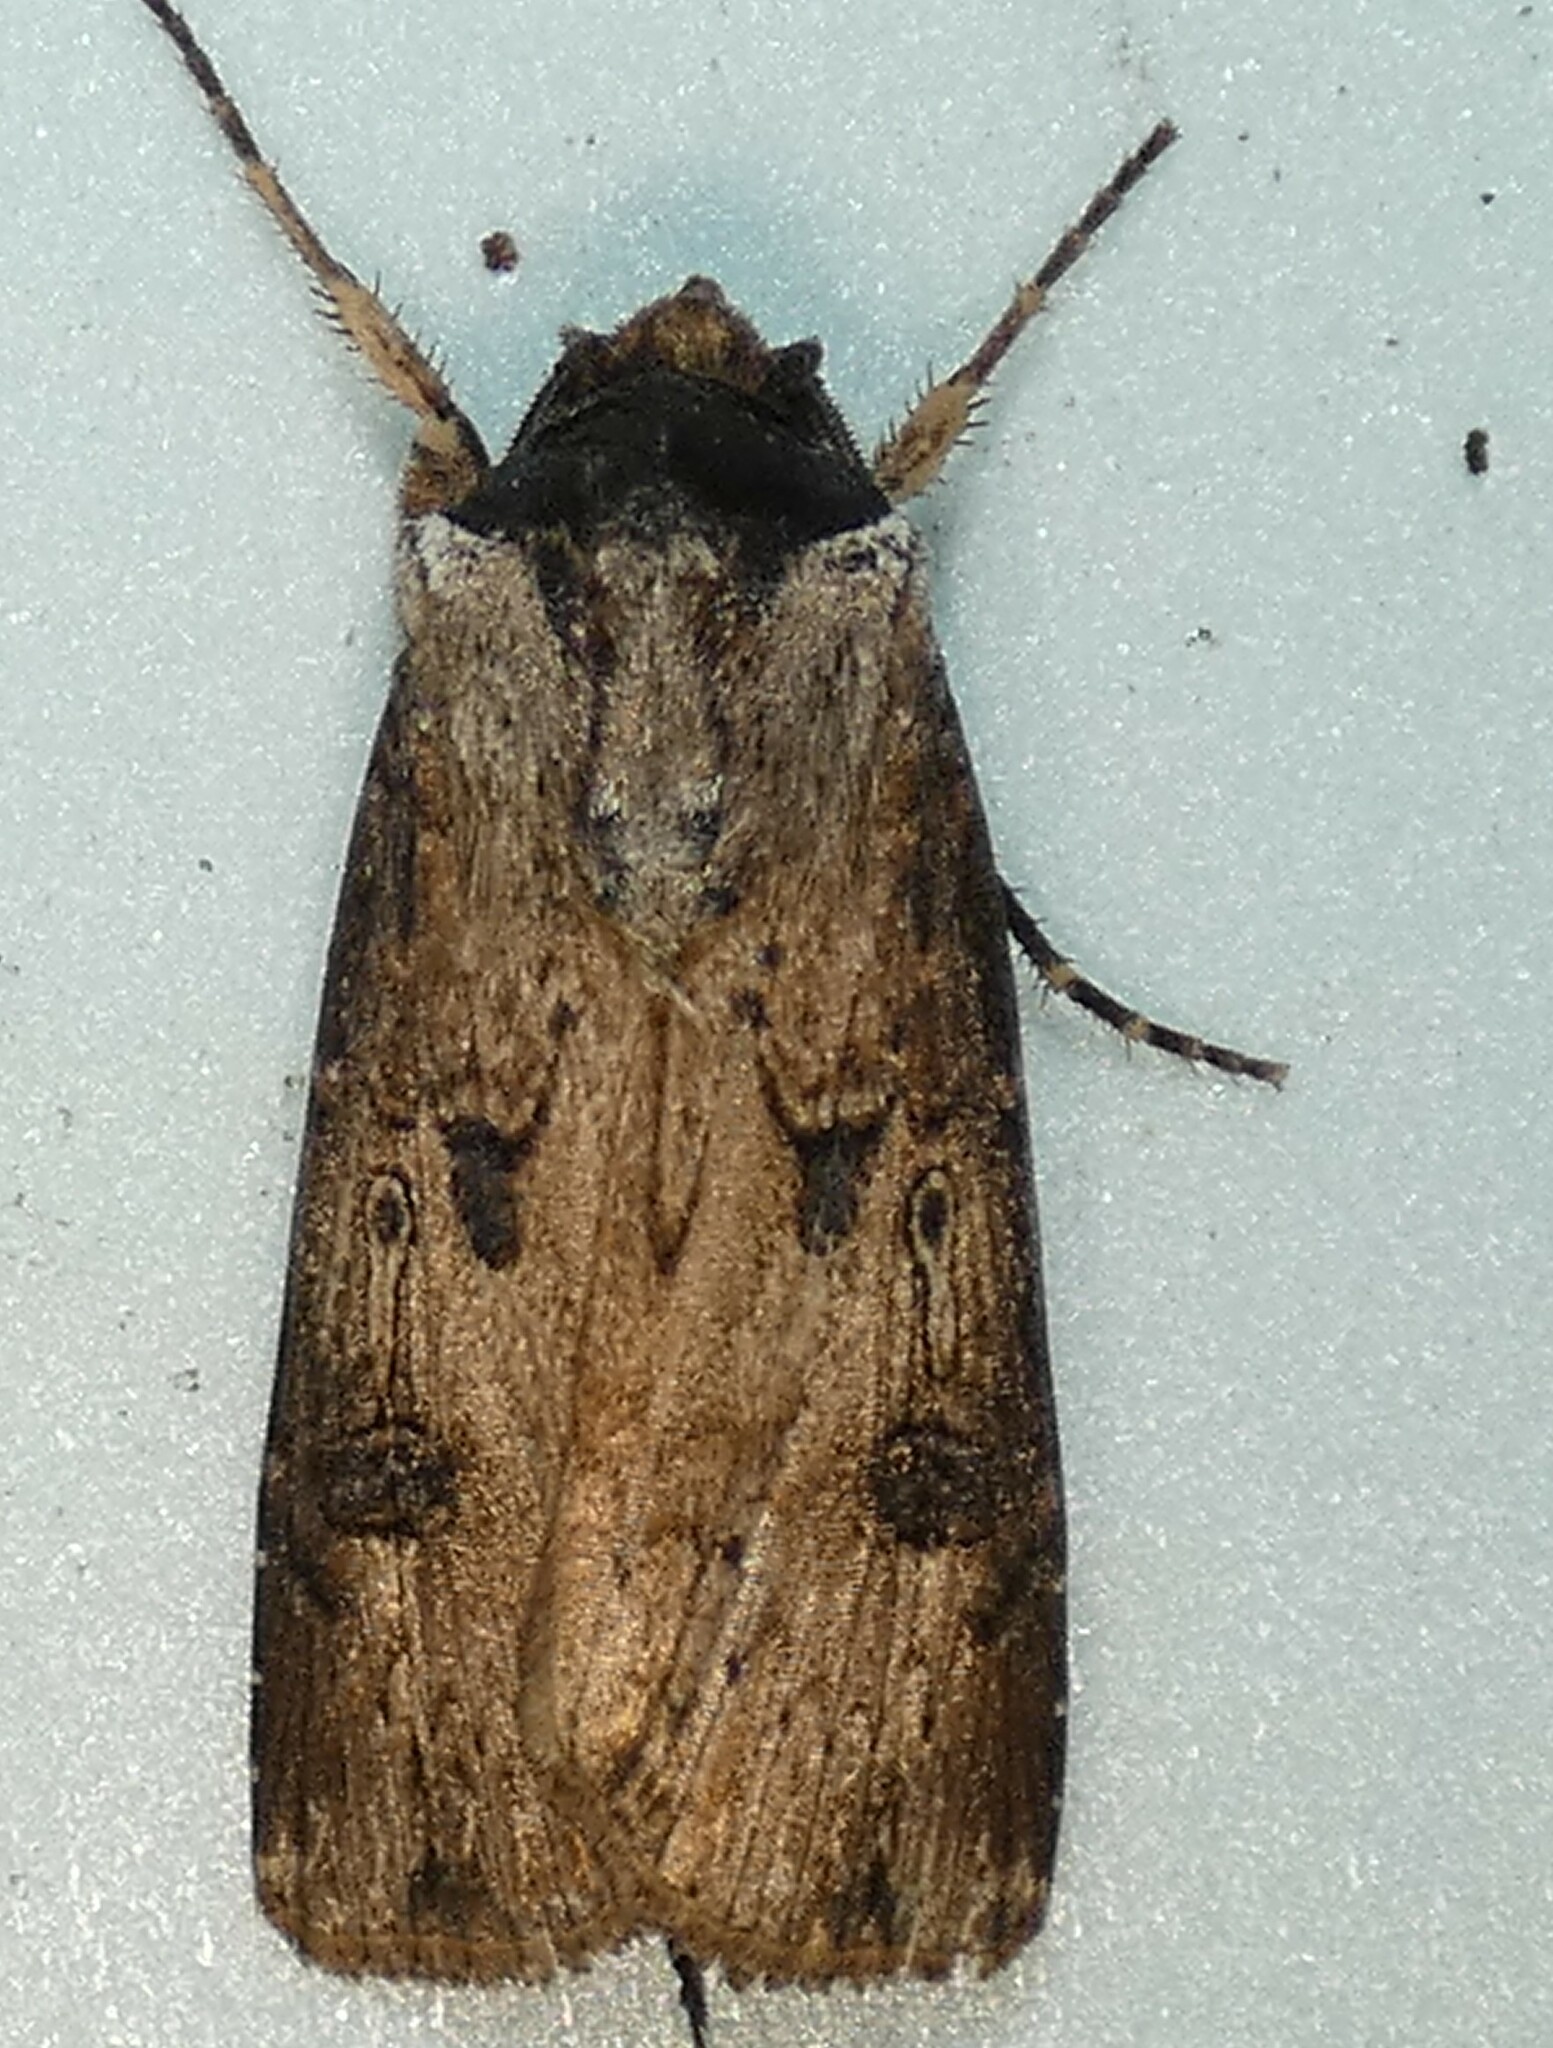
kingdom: Animalia
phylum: Arthropoda
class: Insecta
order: Lepidoptera
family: Noctuidae
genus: Agrotis
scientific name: Agrotis malefida
